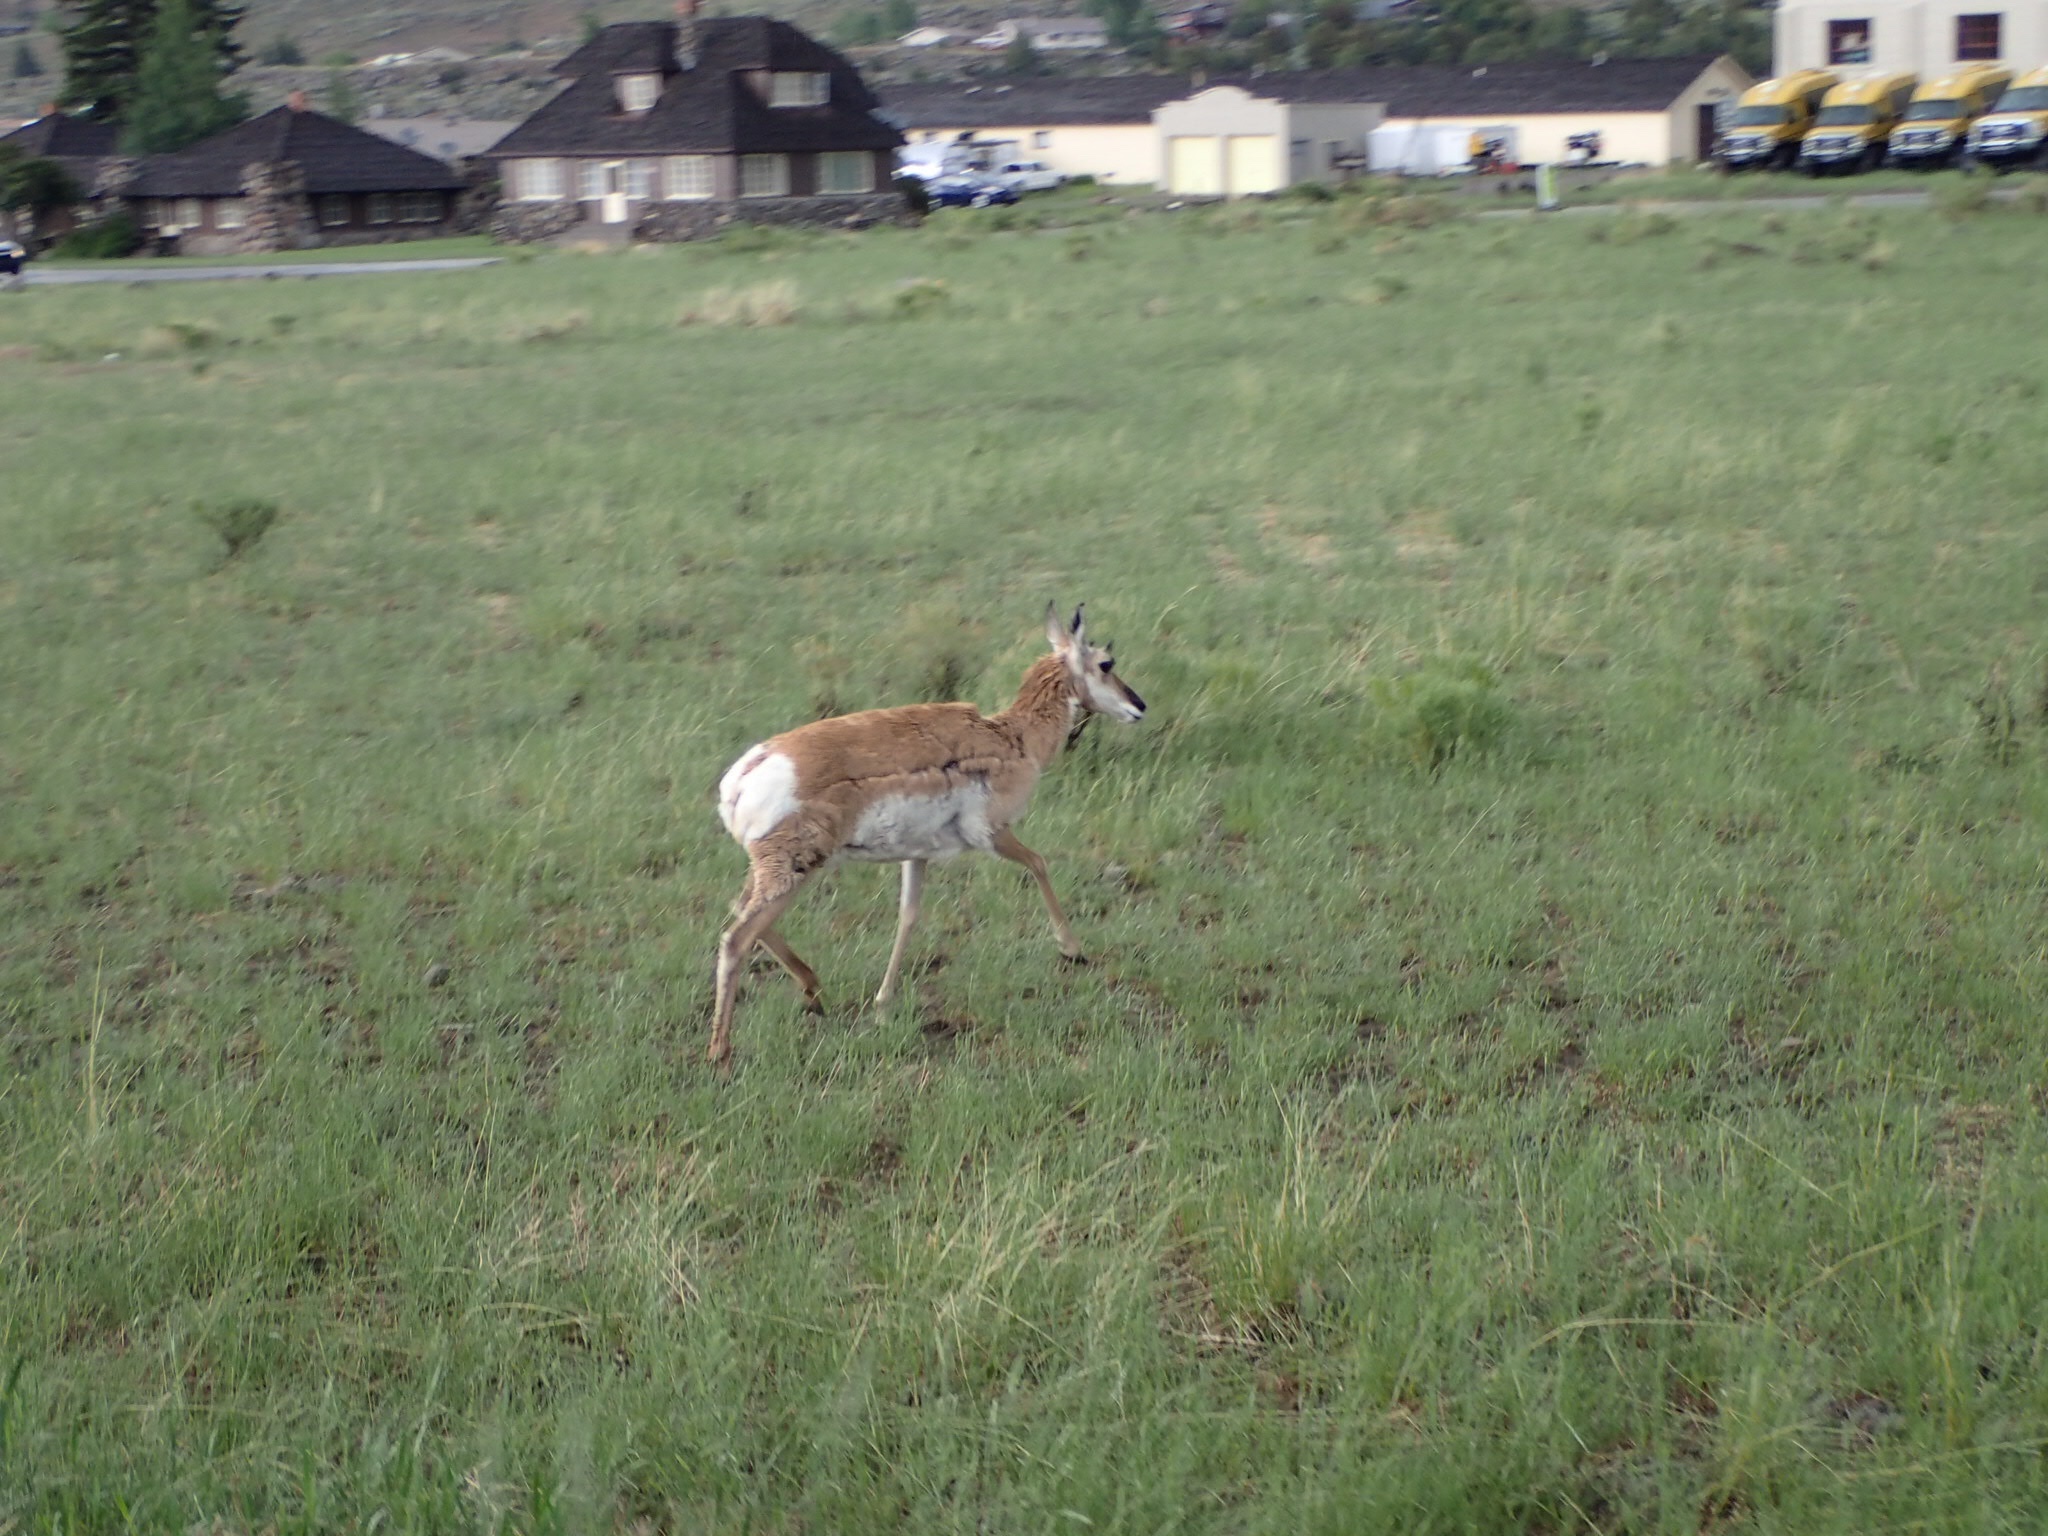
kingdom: Animalia
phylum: Chordata
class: Mammalia
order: Artiodactyla
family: Antilocapridae
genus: Antilocapra
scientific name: Antilocapra americana
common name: Pronghorn
